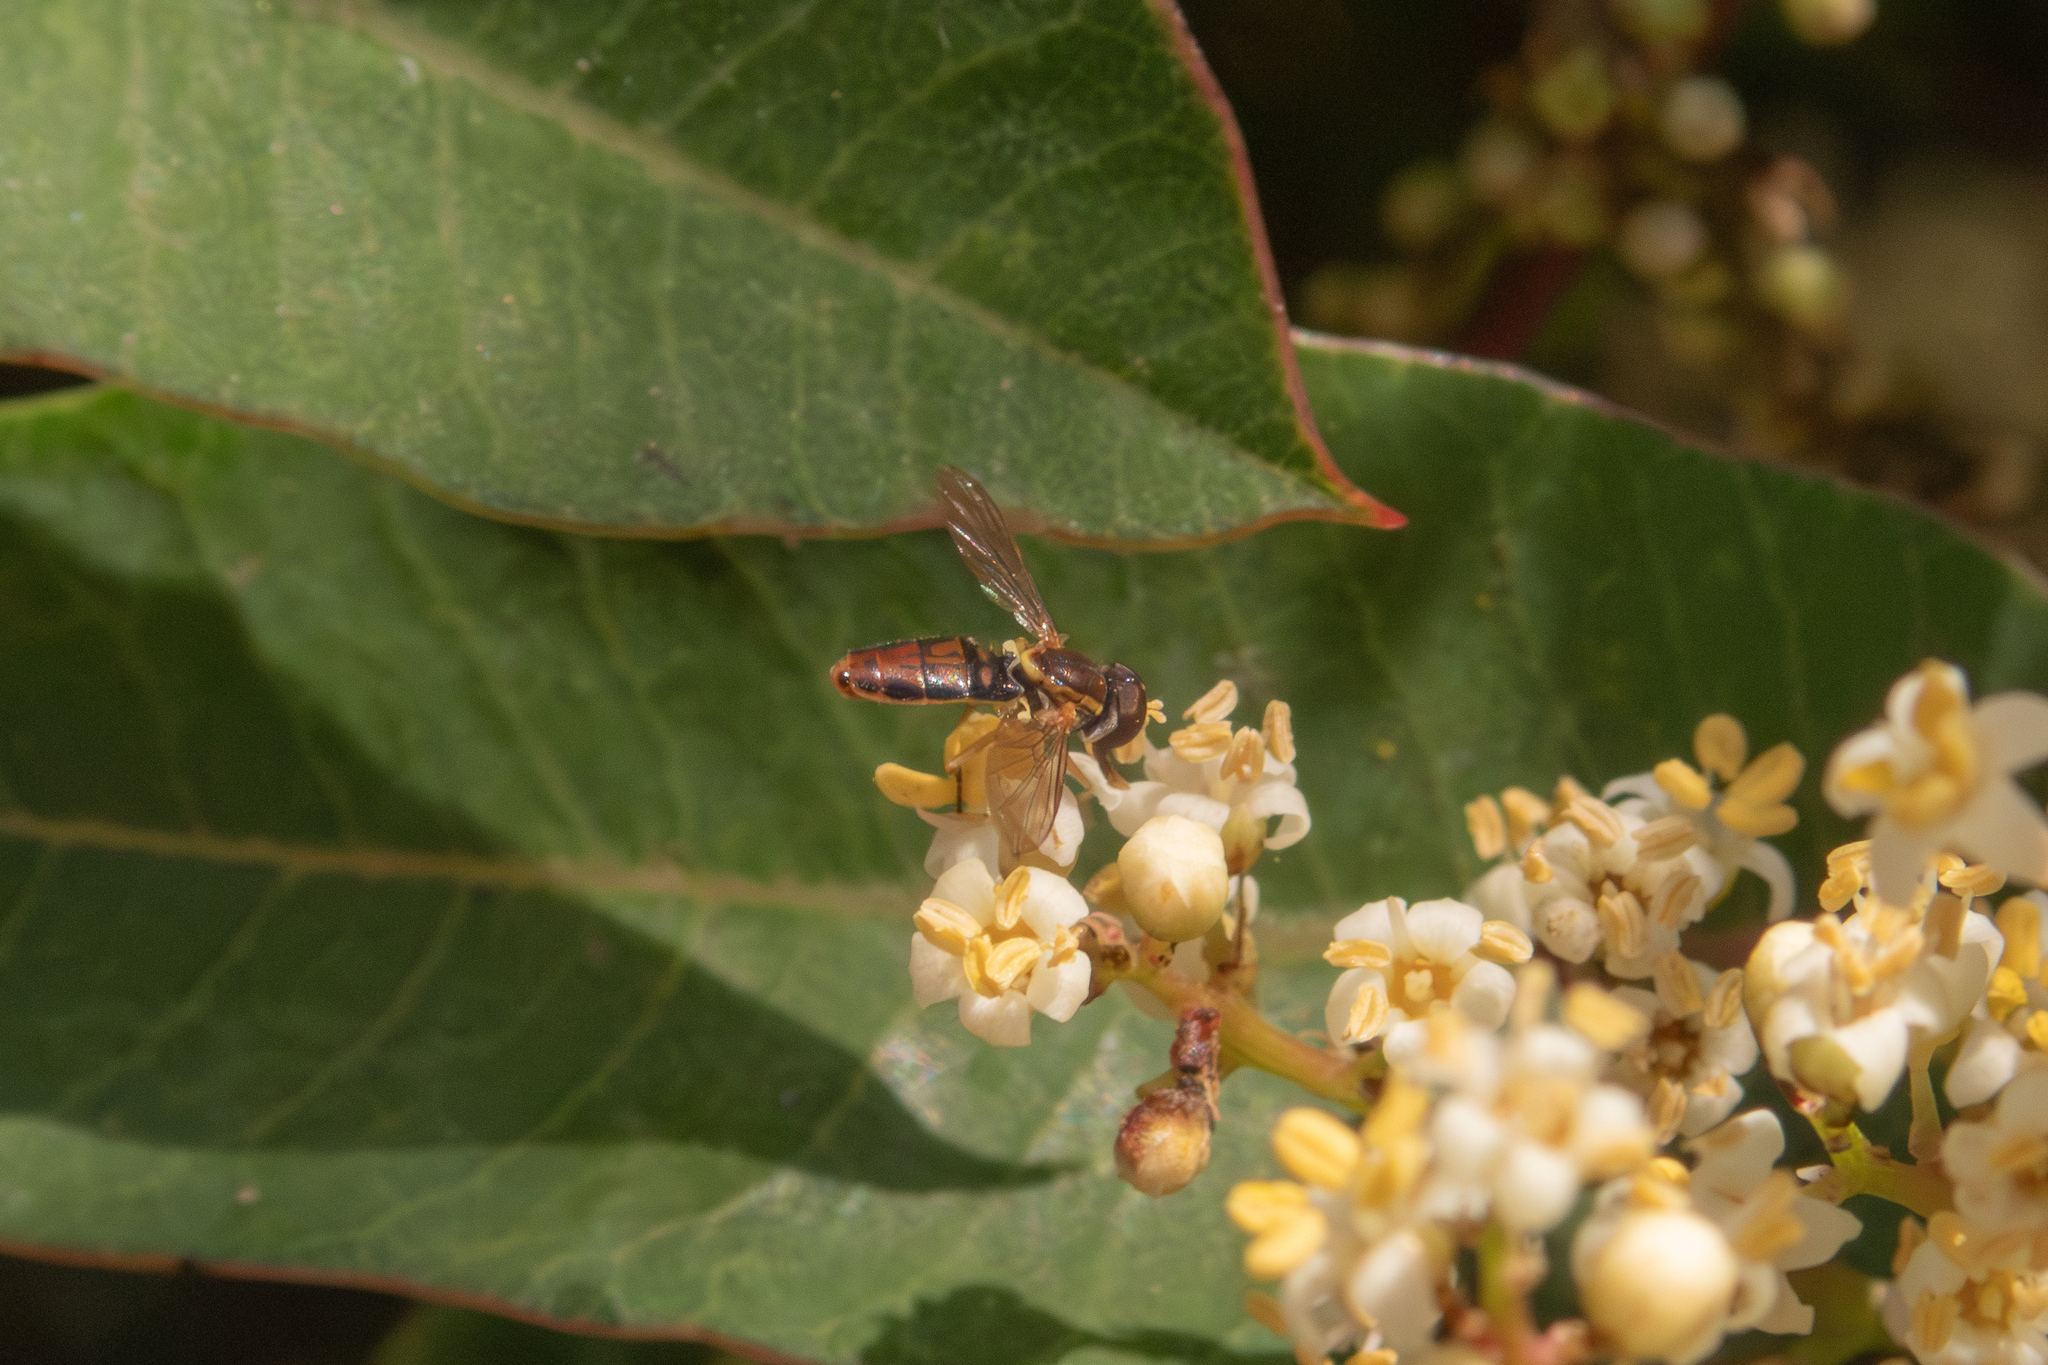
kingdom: Animalia
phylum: Arthropoda
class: Insecta
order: Diptera
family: Syrphidae
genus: Toxomerus
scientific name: Toxomerus marginatus
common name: Syrphid fly
